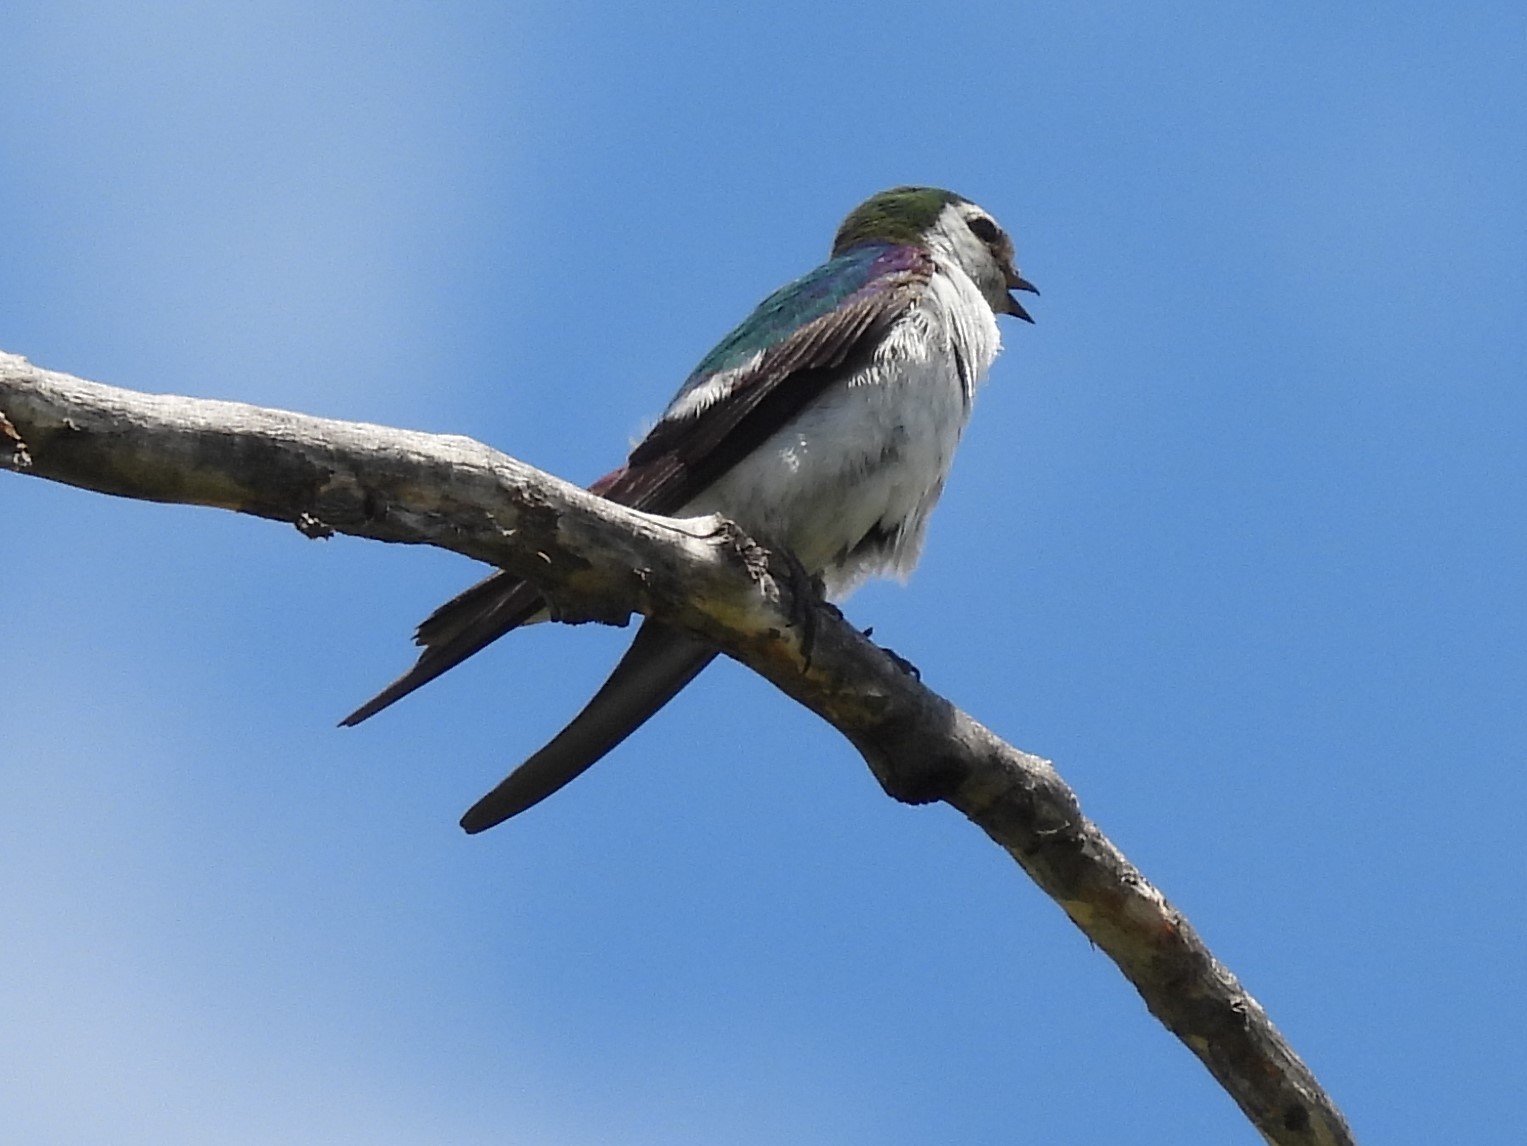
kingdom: Animalia
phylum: Chordata
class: Aves
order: Passeriformes
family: Hirundinidae
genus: Tachycineta
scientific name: Tachycineta thalassina
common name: Violet-green swallow
